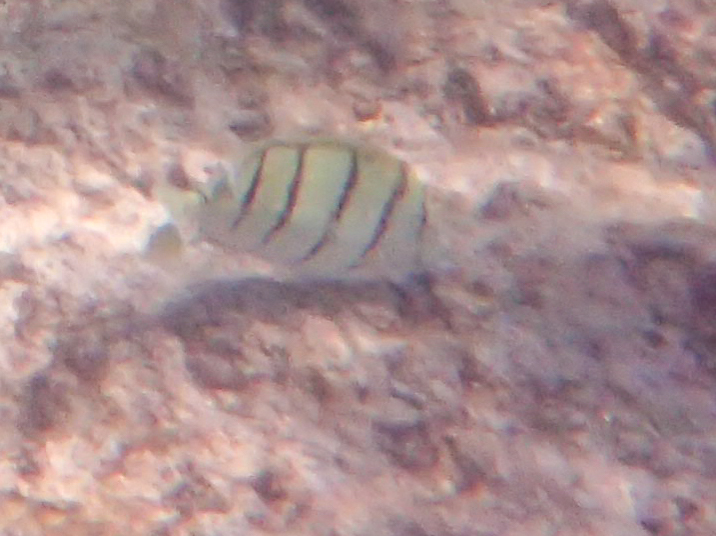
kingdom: Animalia
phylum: Chordata
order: Perciformes
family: Acanthuridae
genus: Acanthurus
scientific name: Acanthurus triostegus
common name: Convict surgeonfish
